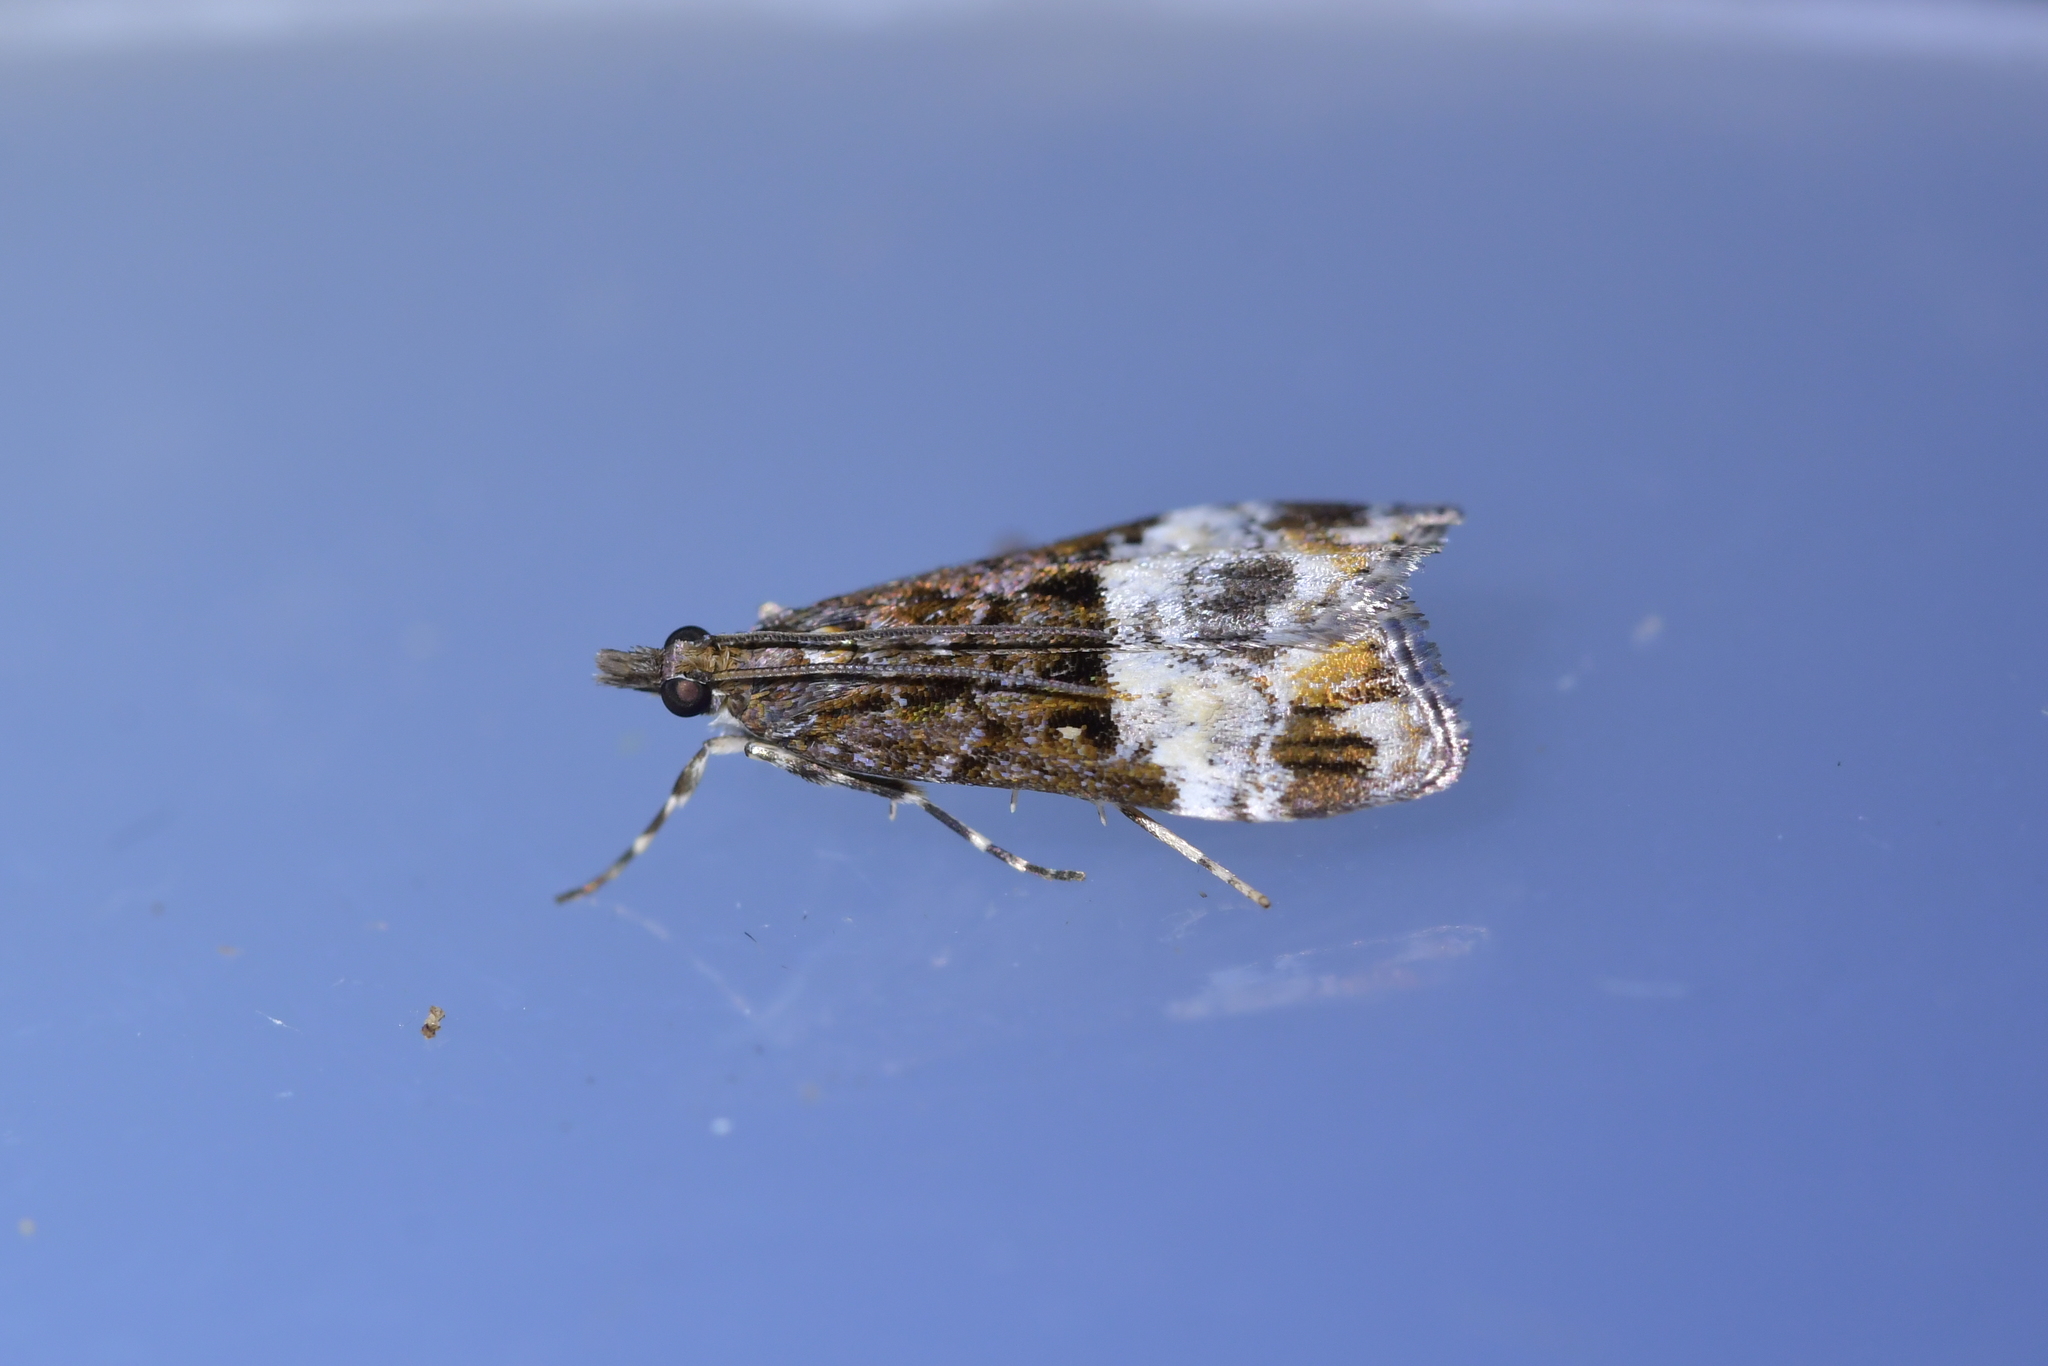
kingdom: Animalia
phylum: Arthropoda
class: Insecta
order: Lepidoptera
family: Crambidae
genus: Scoparia
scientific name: Scoparia minusculalis
